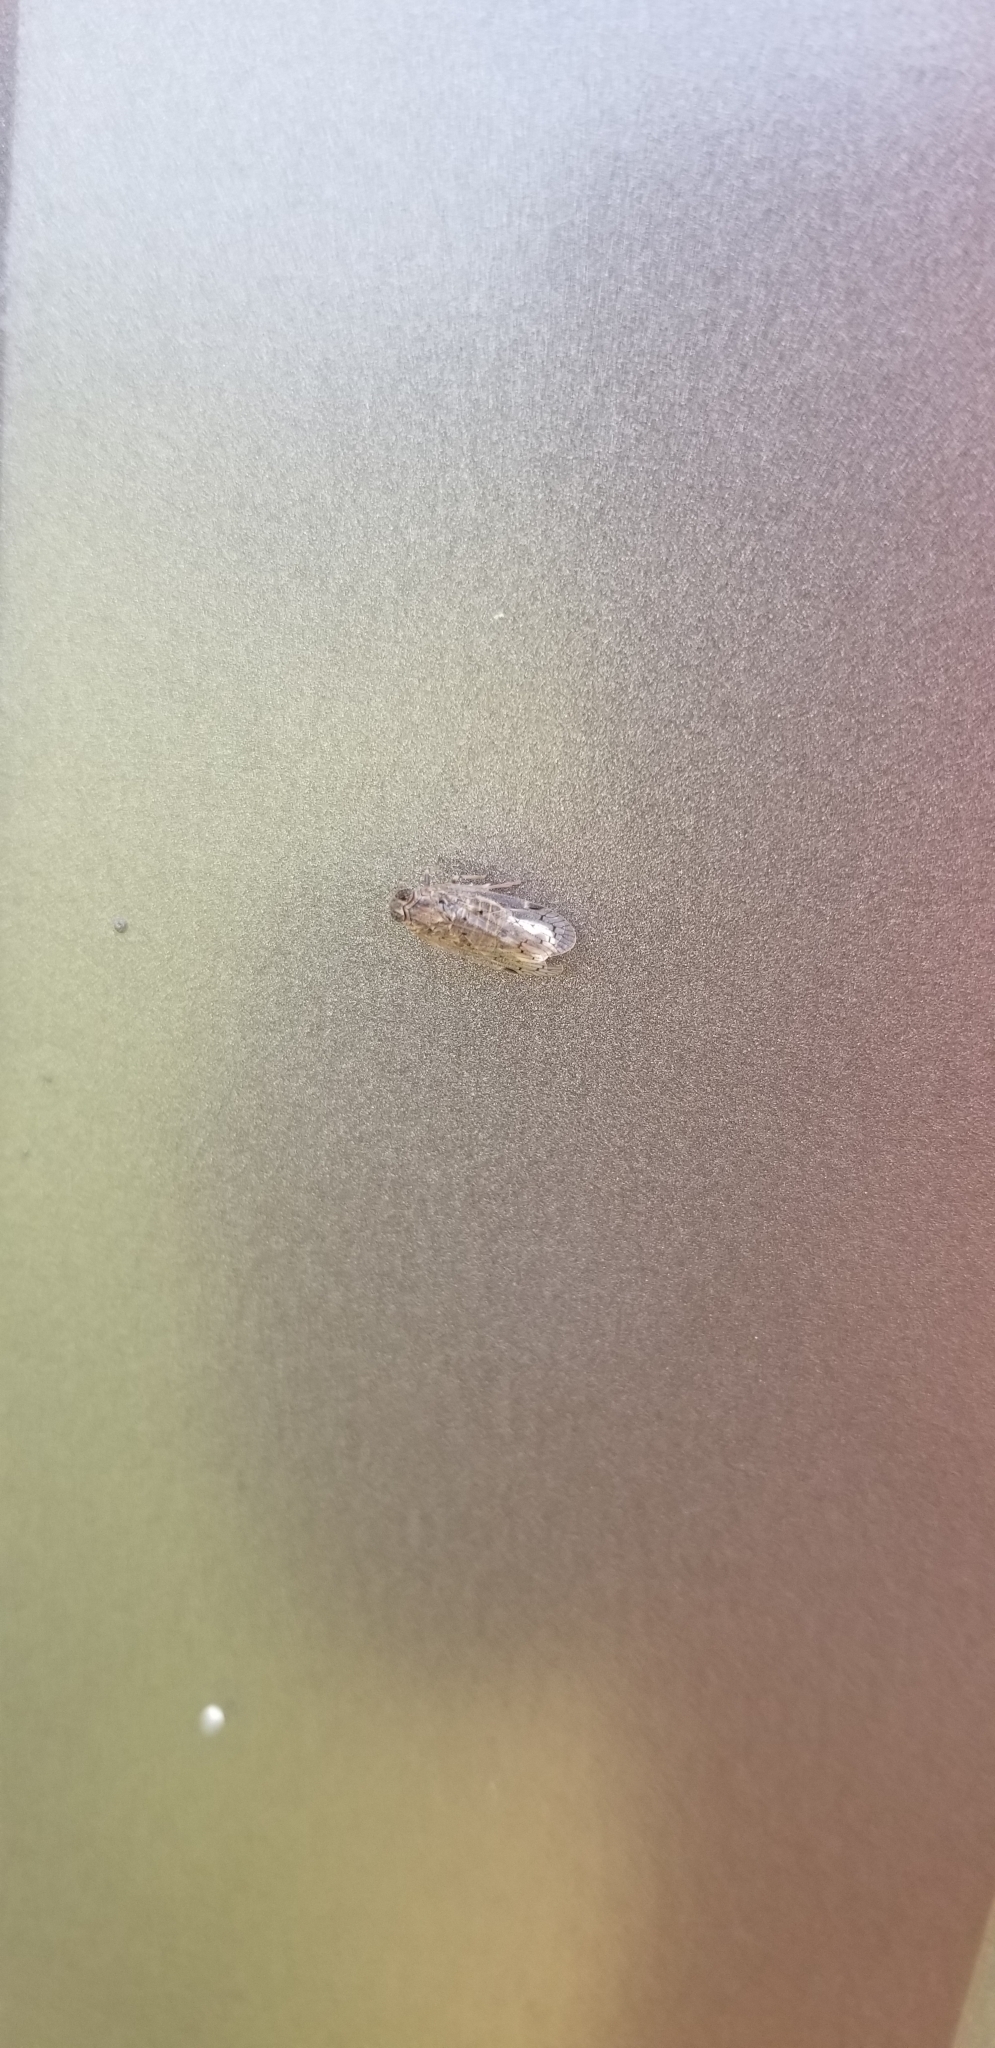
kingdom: Animalia
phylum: Arthropoda
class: Insecta
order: Hemiptera
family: Cixiidae
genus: Melanoliarus
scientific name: Melanoliarus aridus
